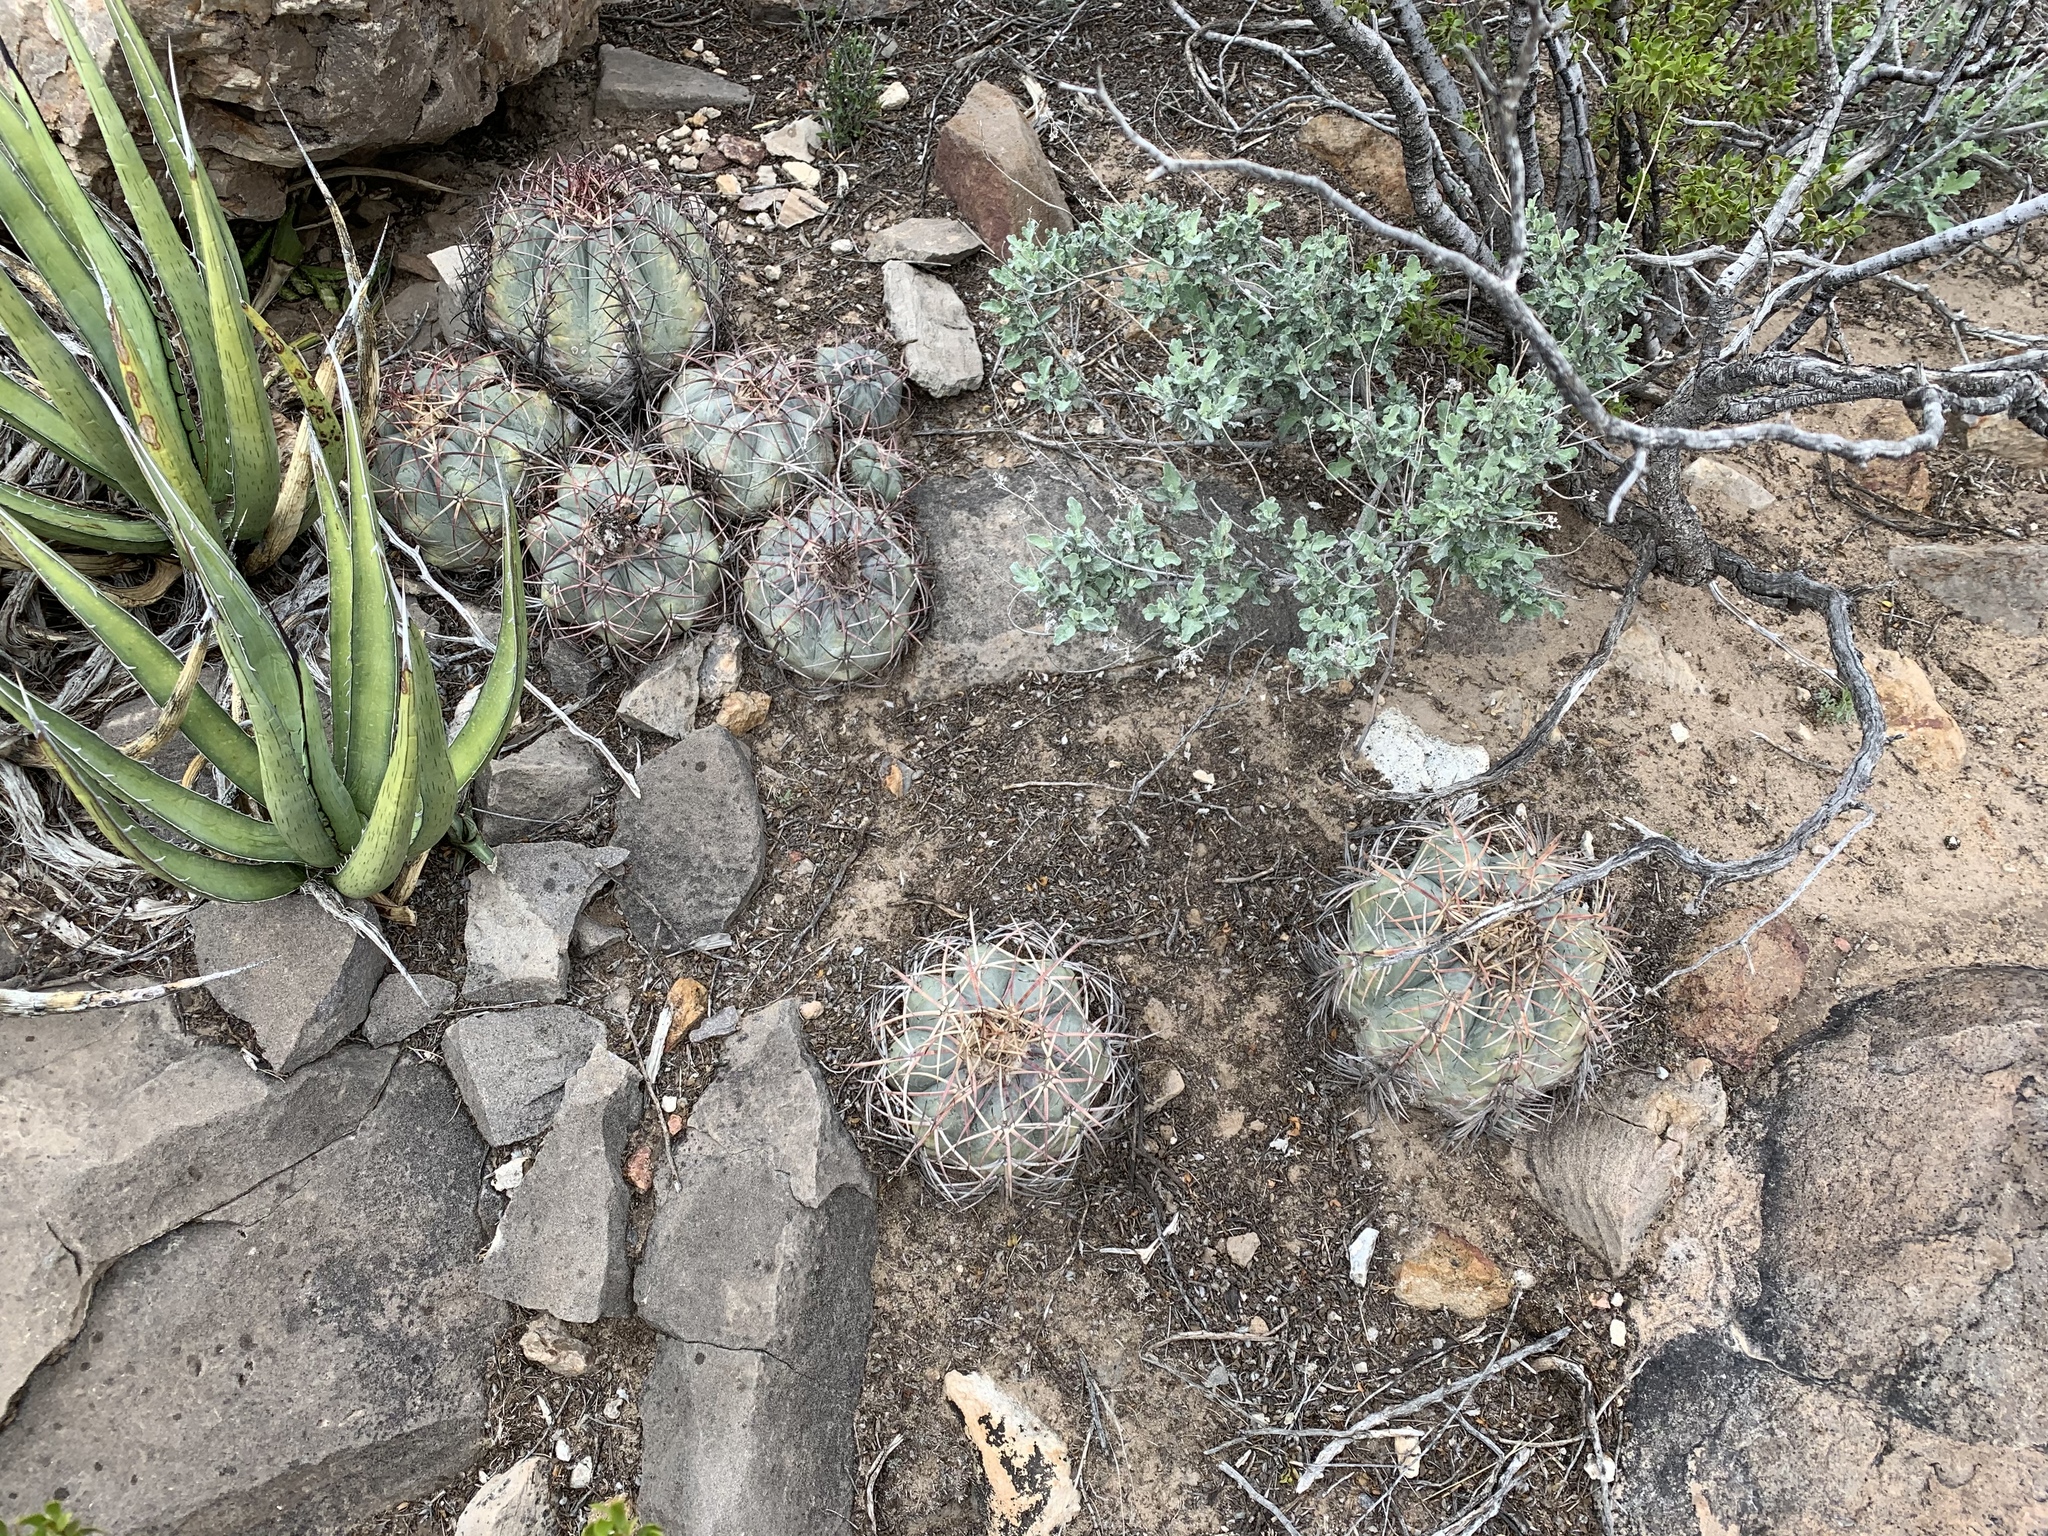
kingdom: Plantae
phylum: Tracheophyta
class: Magnoliopsida
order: Caryophyllales
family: Cactaceae
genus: Echinocactus
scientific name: Echinocactus horizonthalonius
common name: Devilshead
